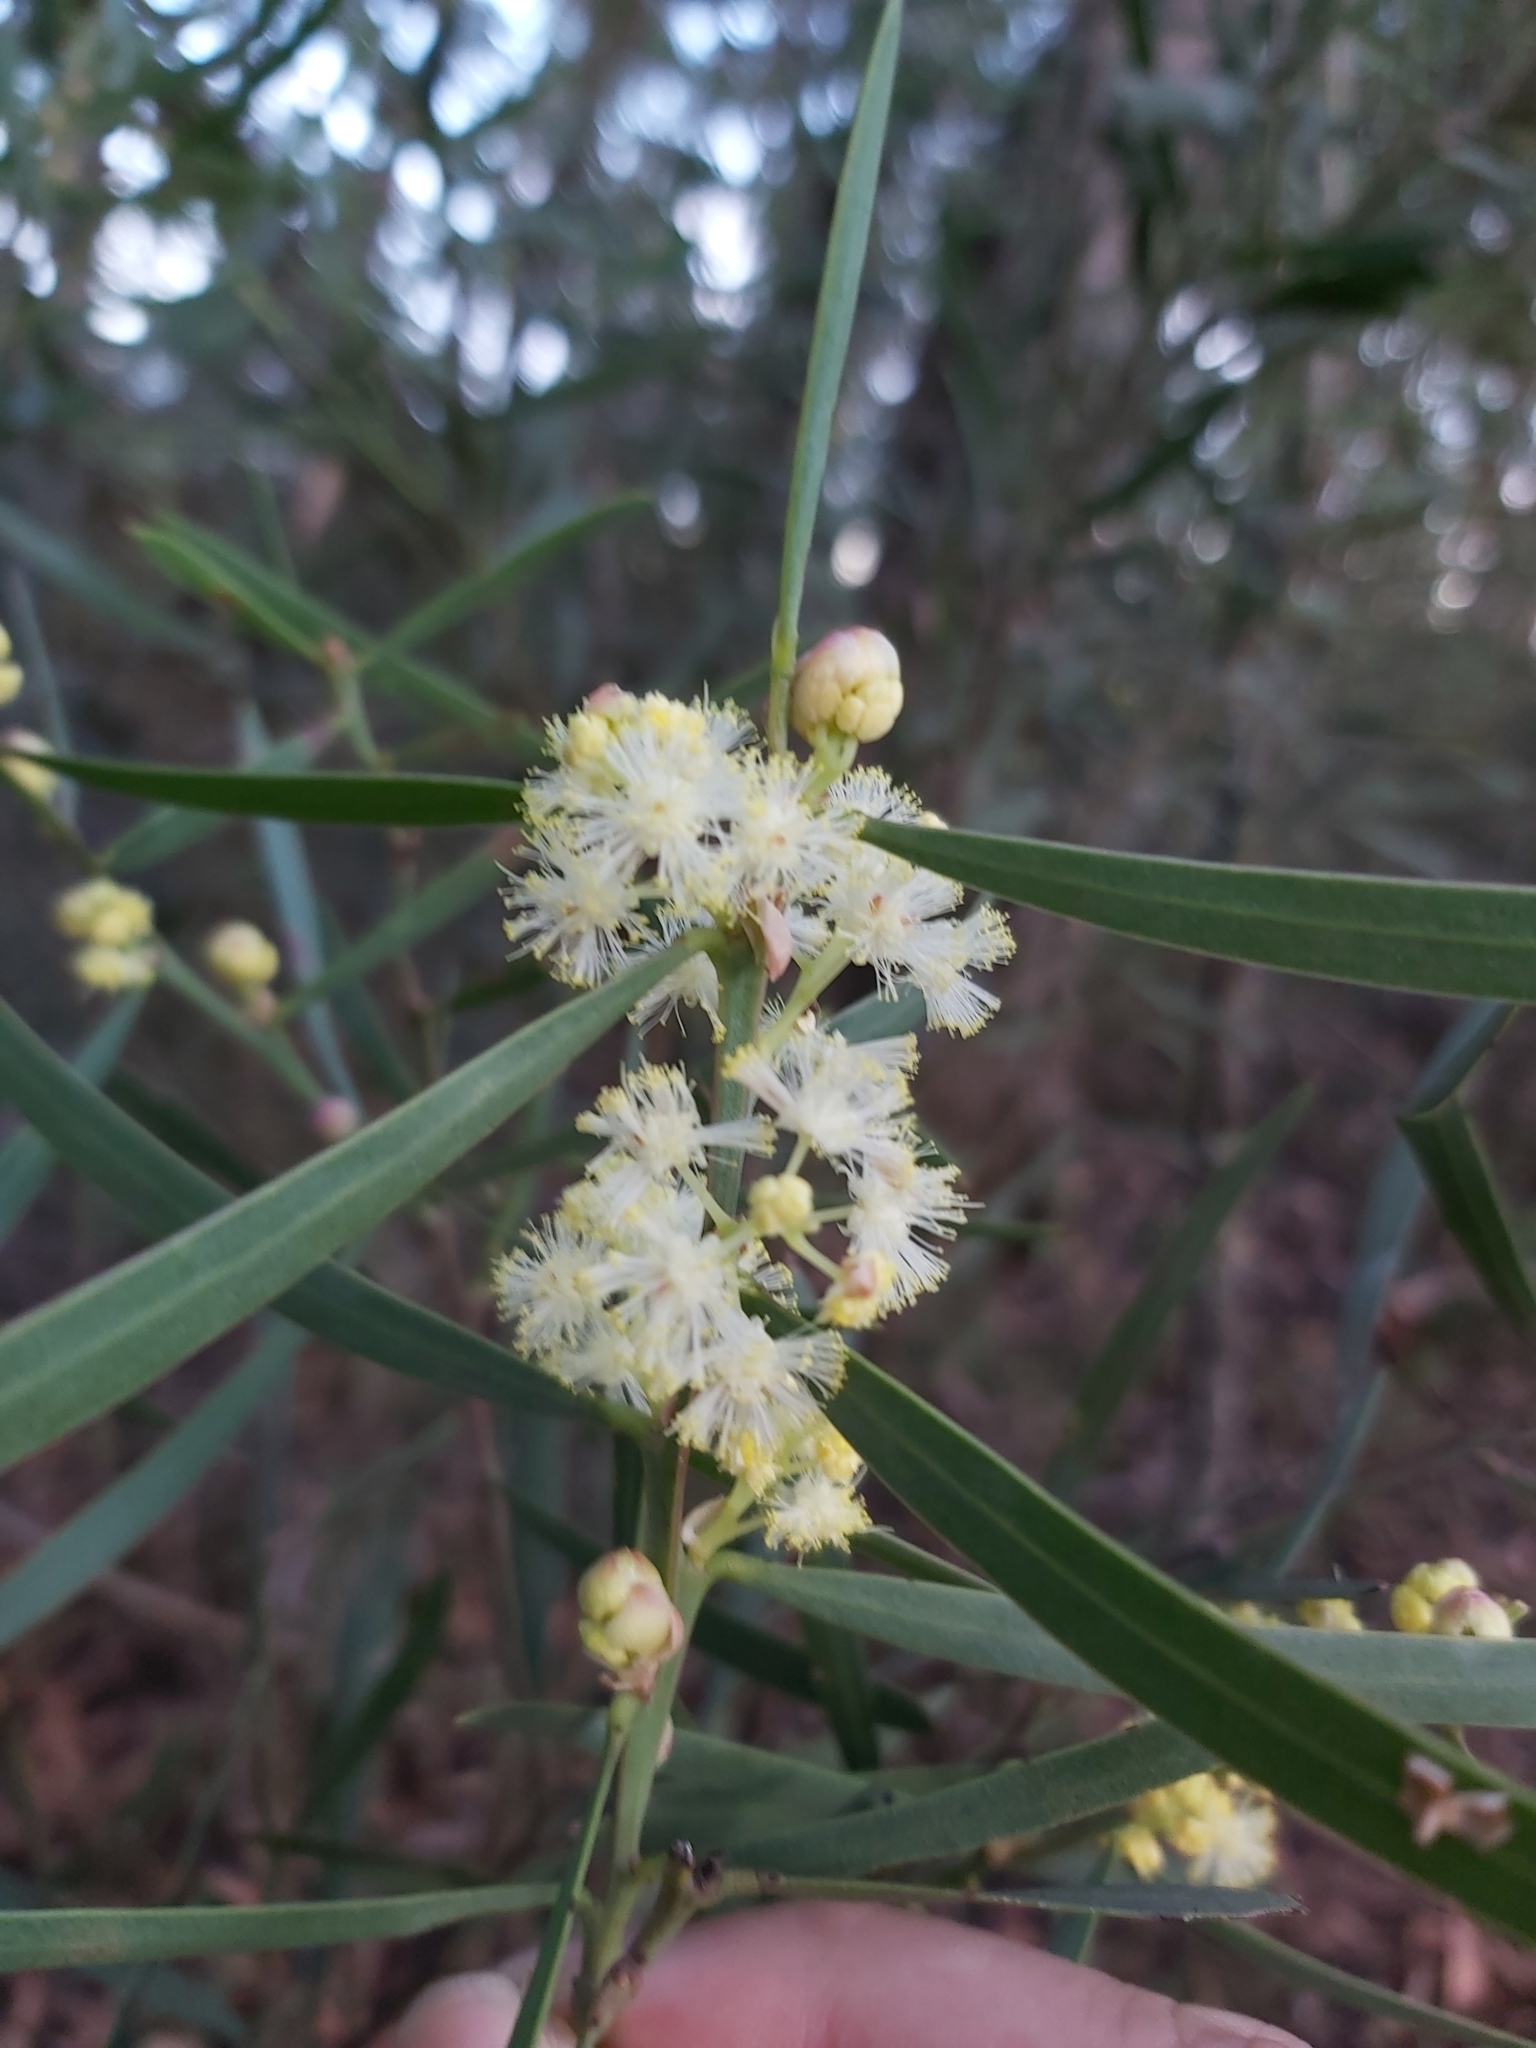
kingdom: Plantae
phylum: Tracheophyta
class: Magnoliopsida
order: Fabales
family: Fabaceae
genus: Acacia
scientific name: Acacia suaveolens
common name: Sweet acacia
